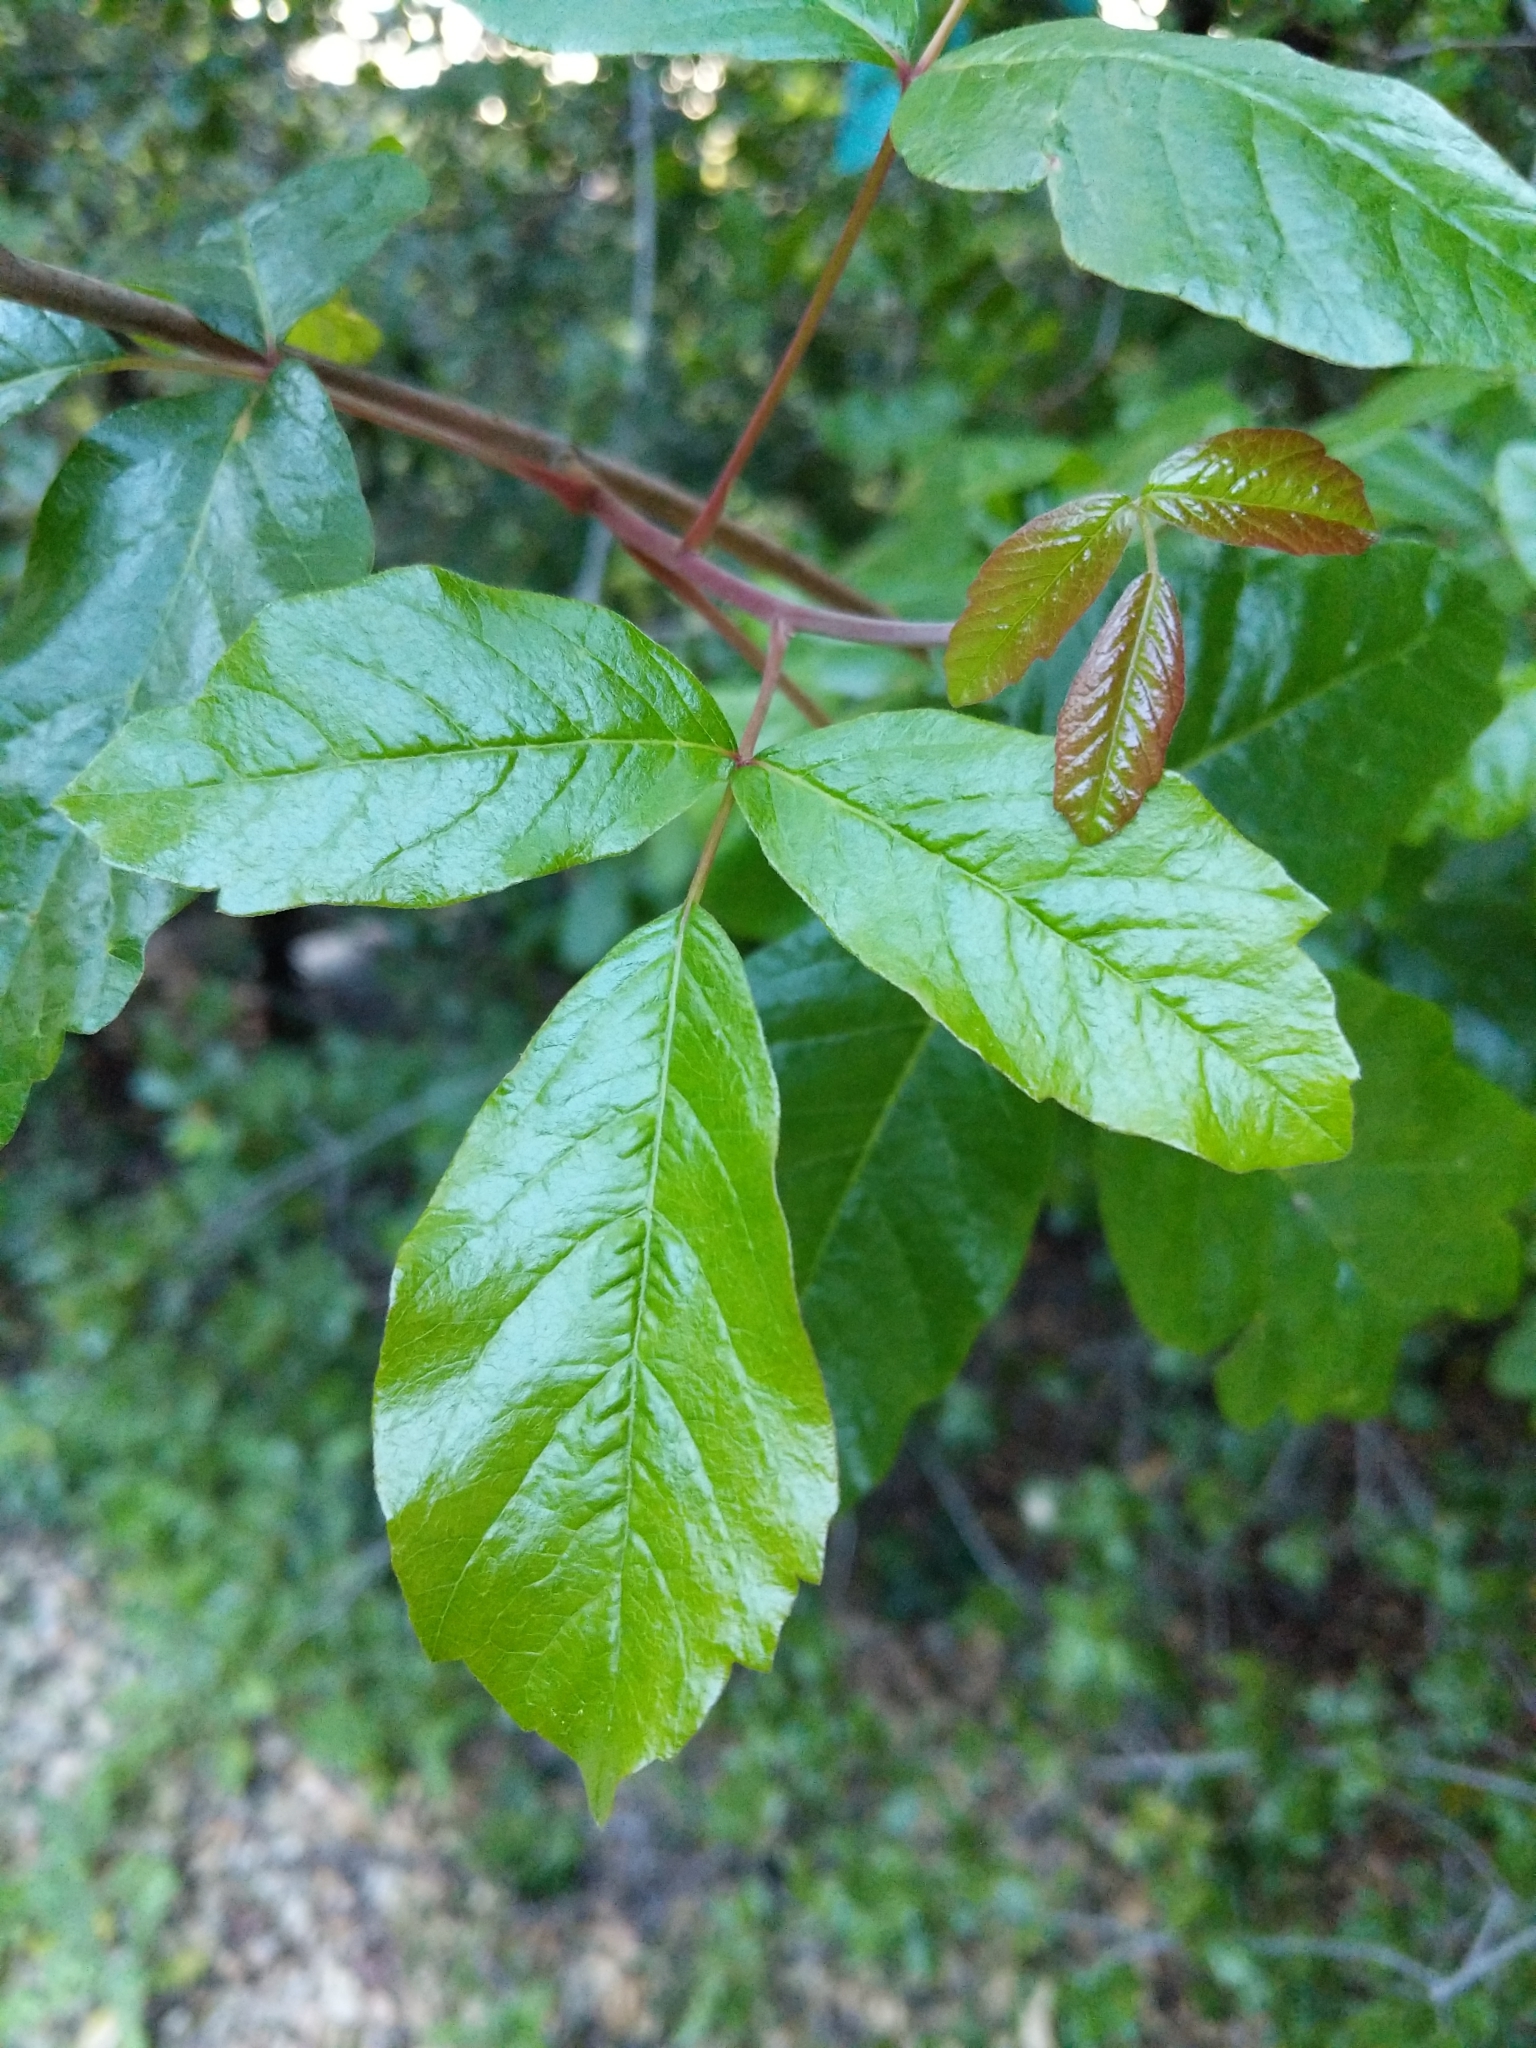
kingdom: Plantae
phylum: Tracheophyta
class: Magnoliopsida
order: Sapindales
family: Anacardiaceae
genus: Toxicodendron
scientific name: Toxicodendron diversilobum
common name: Pacific poison-oak
